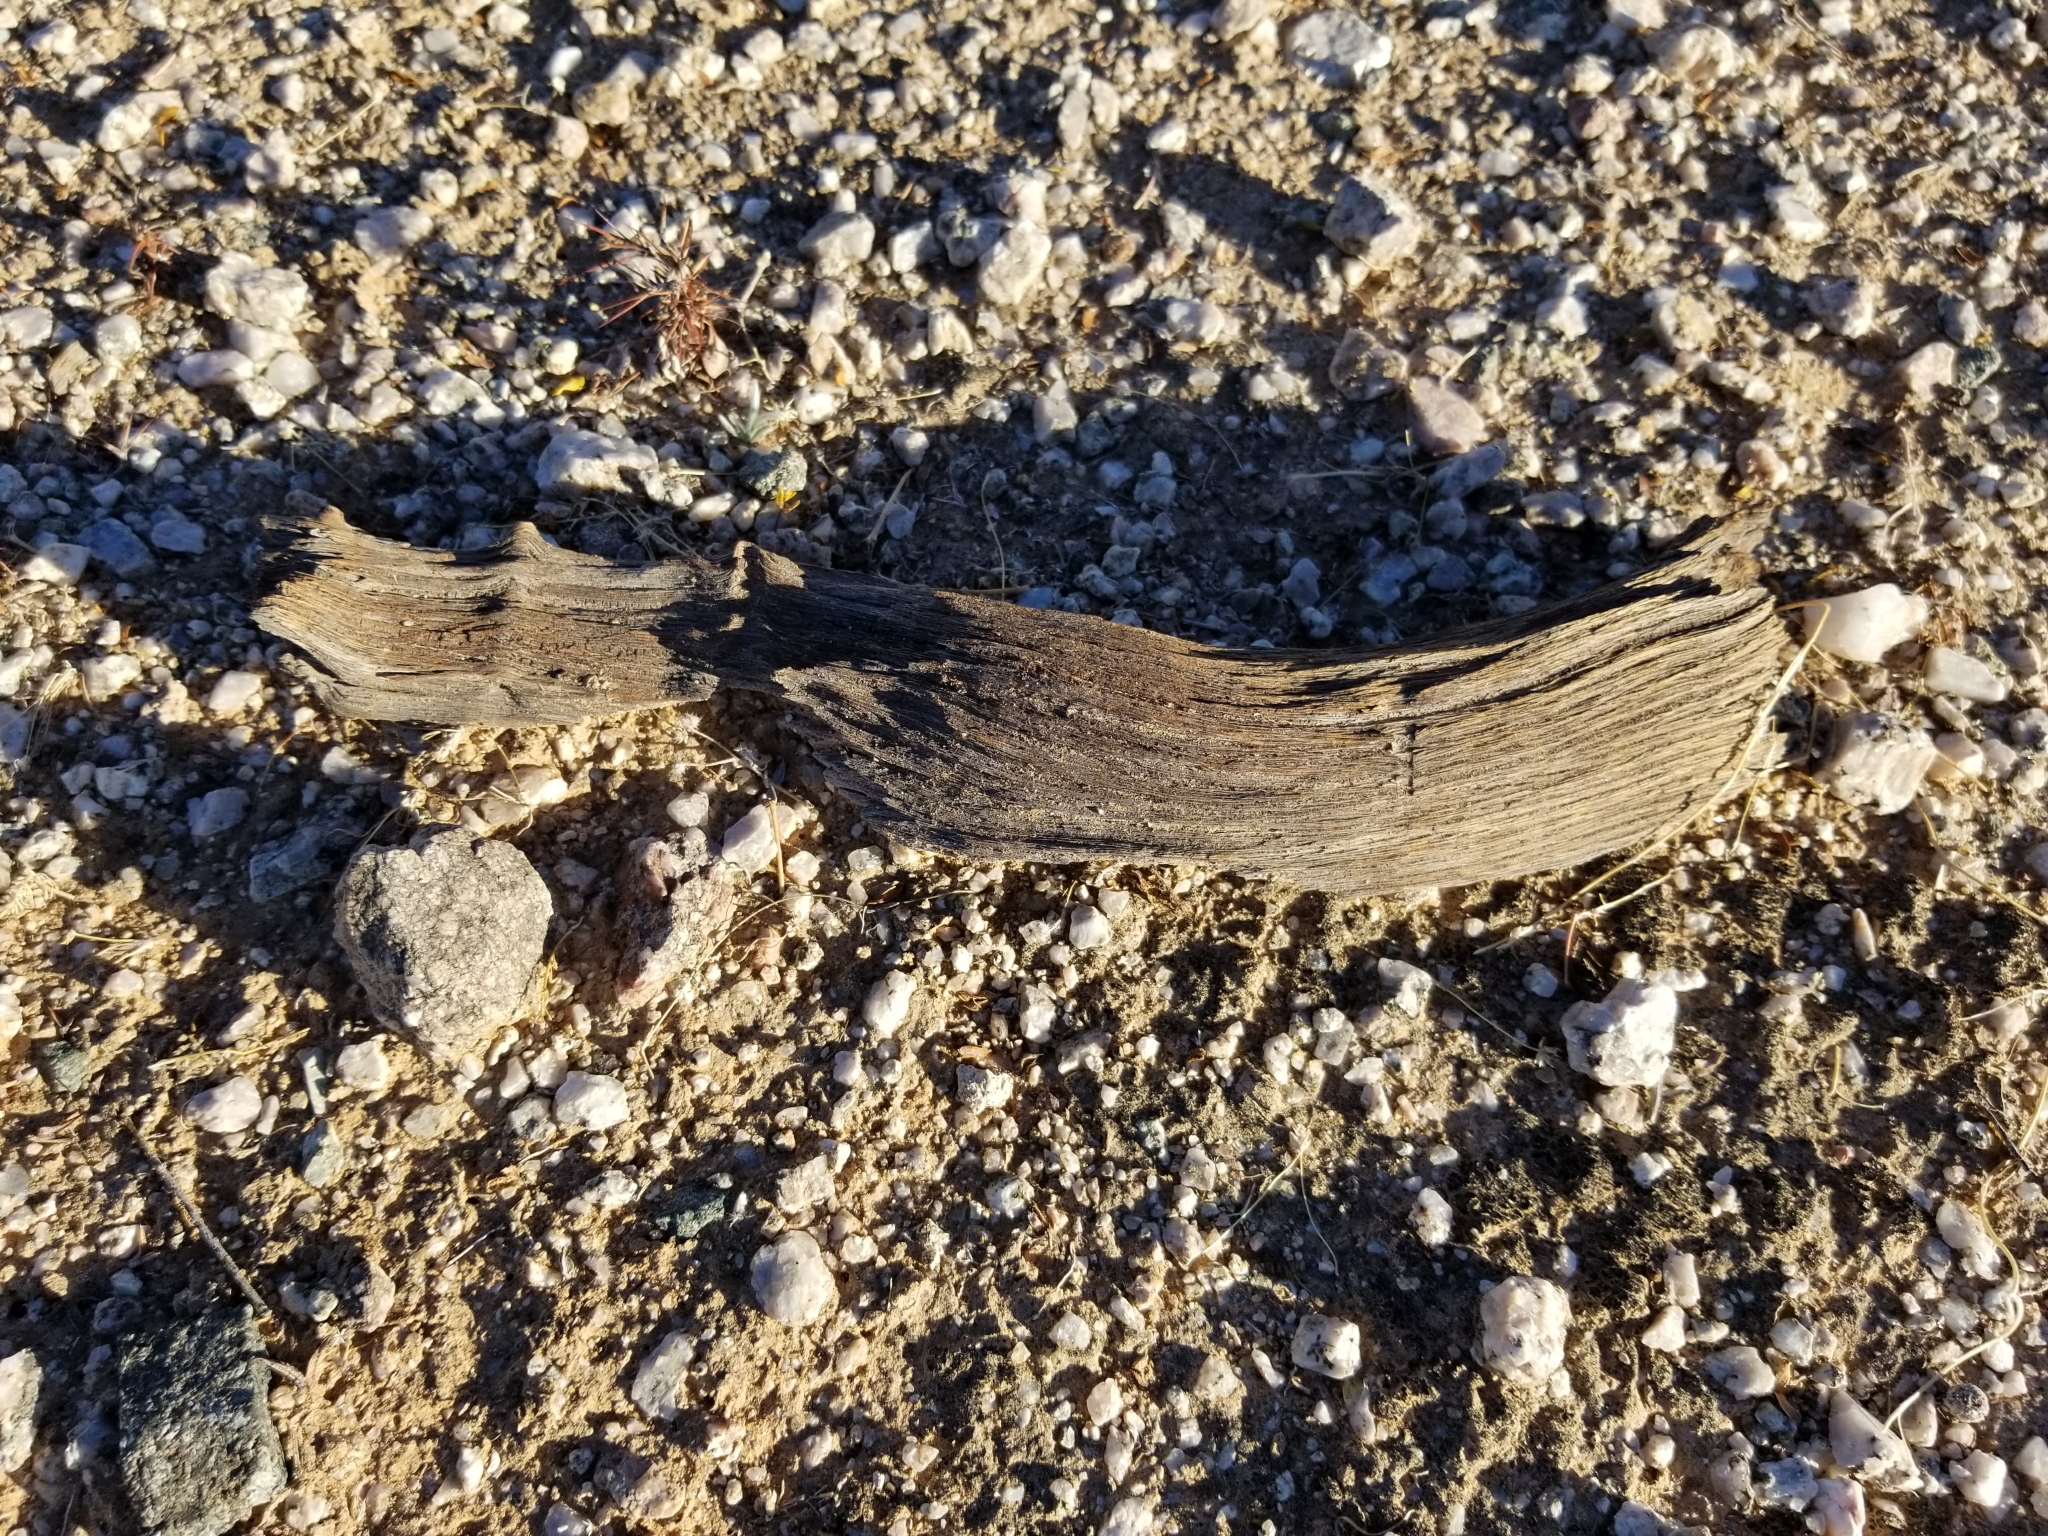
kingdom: Plantae
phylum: Tracheophyta
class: Magnoliopsida
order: Fabales
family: Fabaceae
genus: Olneya
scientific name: Olneya tesota
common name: Desert ironwood
